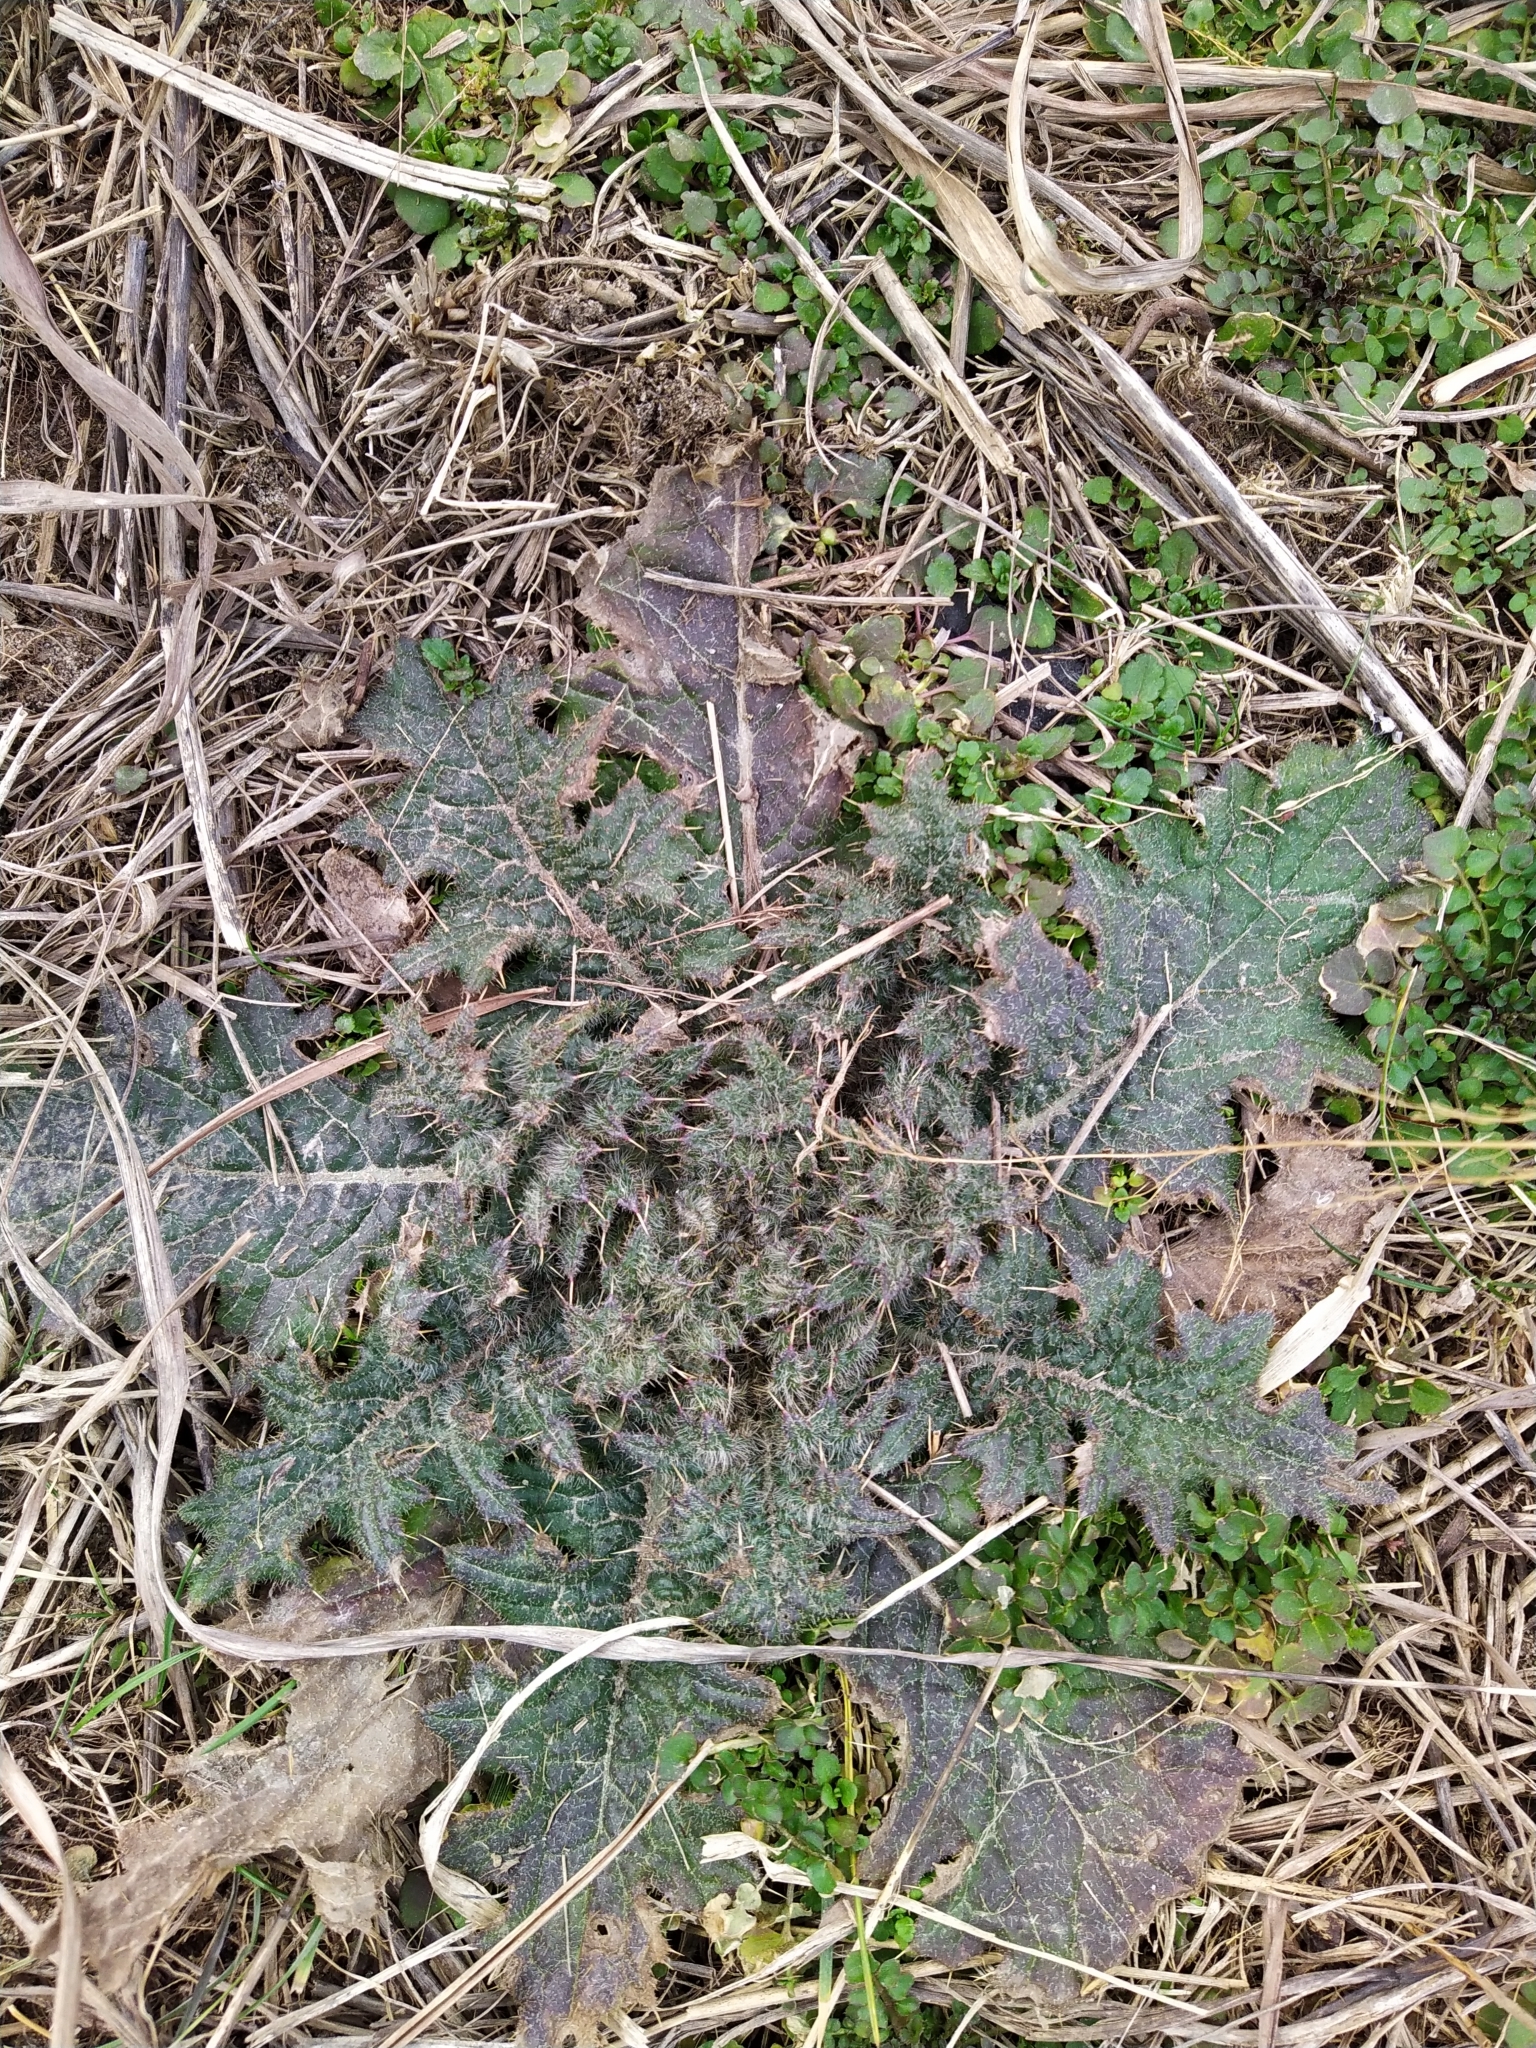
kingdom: Plantae
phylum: Tracheophyta
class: Magnoliopsida
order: Asterales
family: Asteraceae
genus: Cirsium
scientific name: Cirsium vulgare
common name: Bull thistle
